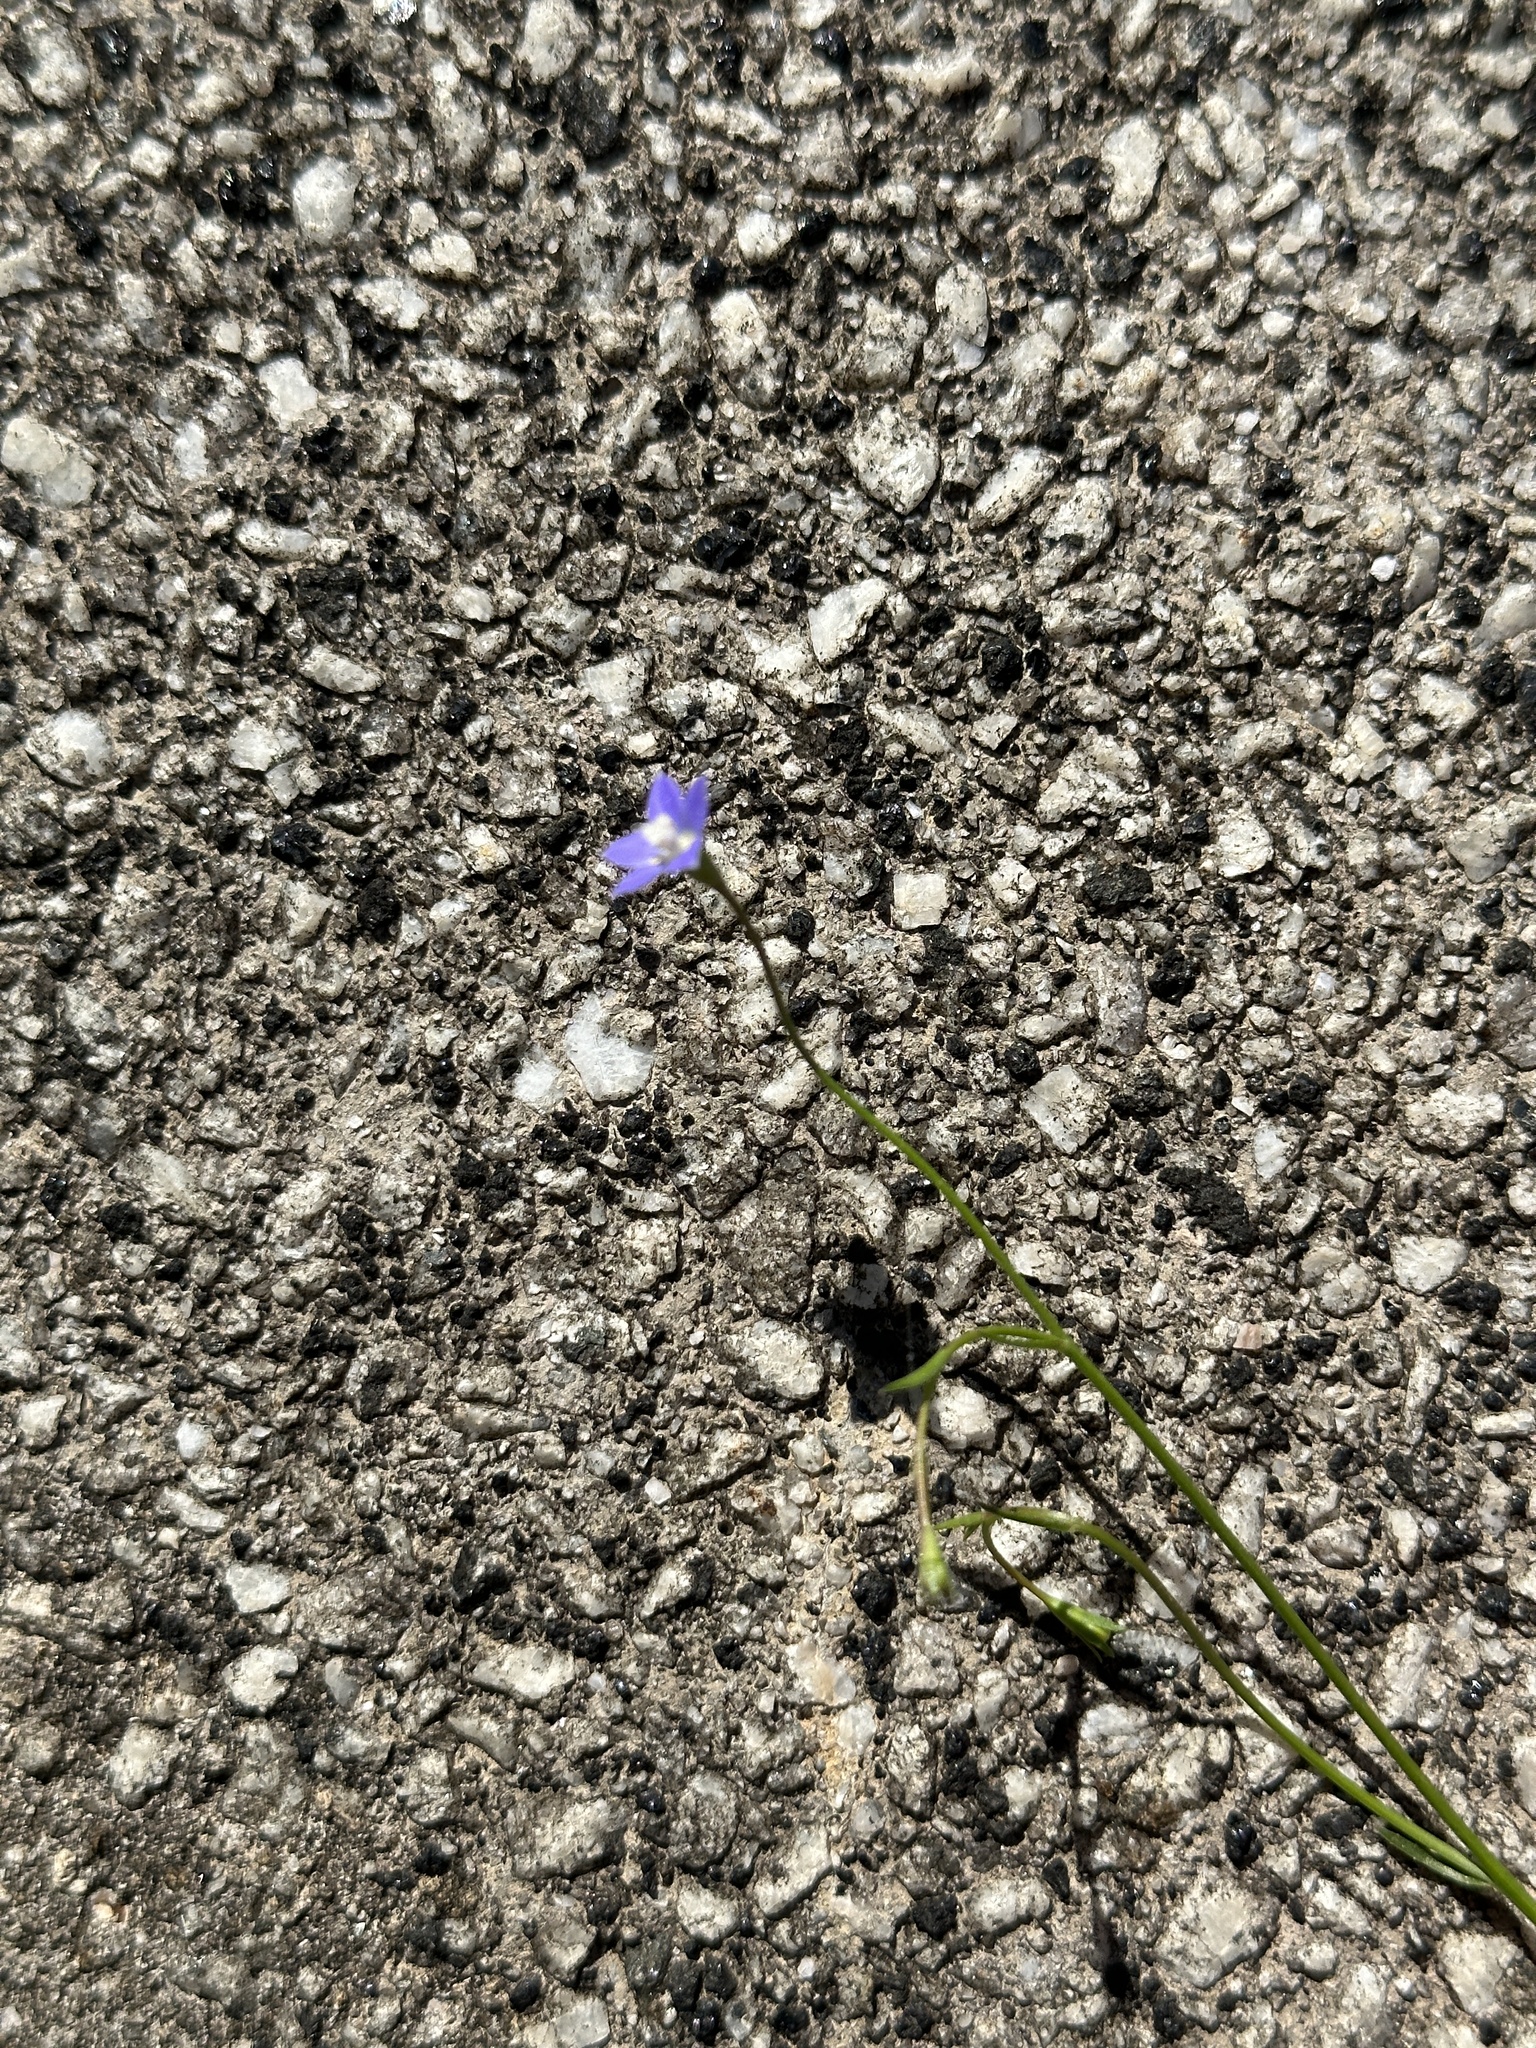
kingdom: Plantae
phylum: Tracheophyta
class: Magnoliopsida
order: Asterales
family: Campanulaceae
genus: Wahlenbergia
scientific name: Wahlenbergia marginata
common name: Southern rockbell
